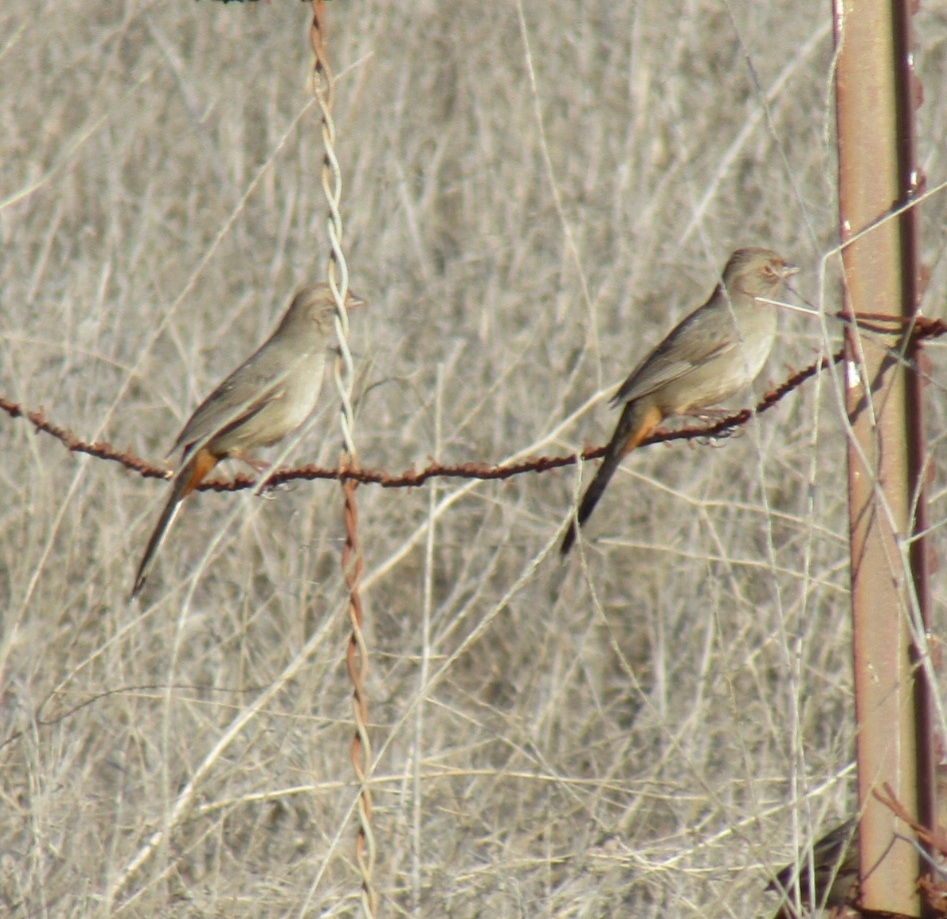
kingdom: Animalia
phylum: Chordata
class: Aves
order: Passeriformes
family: Passerellidae
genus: Melozone
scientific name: Melozone crissalis
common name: California towhee
